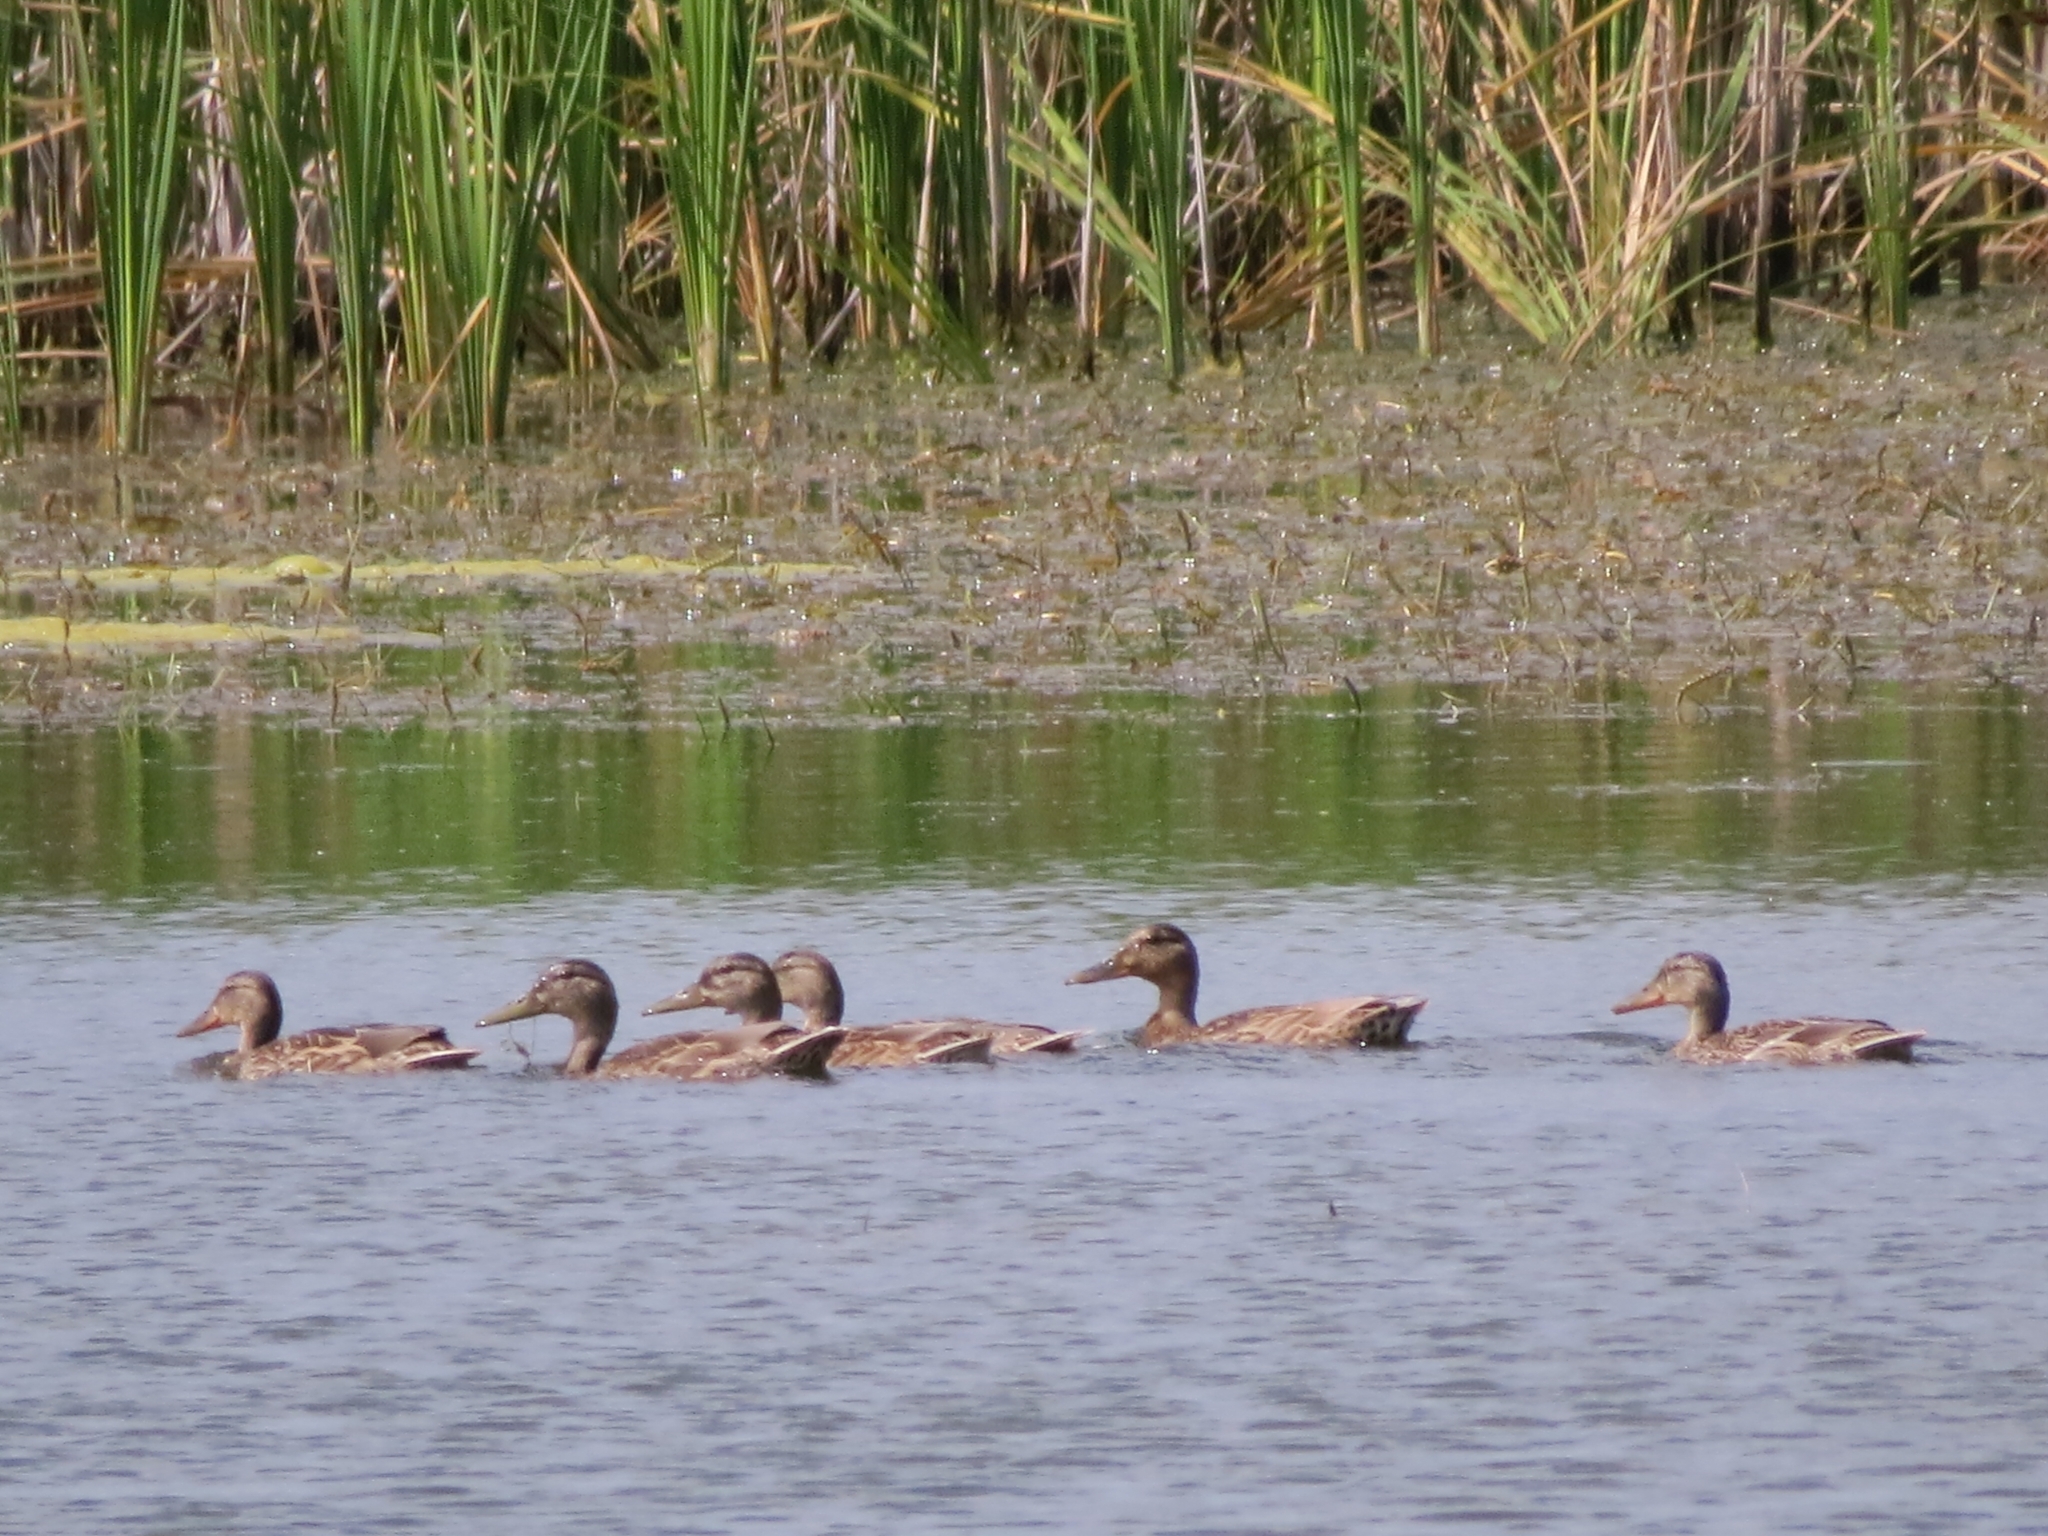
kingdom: Animalia
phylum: Chordata
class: Aves
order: Anseriformes
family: Anatidae
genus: Anas
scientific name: Anas platyrhynchos
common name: Mallard
